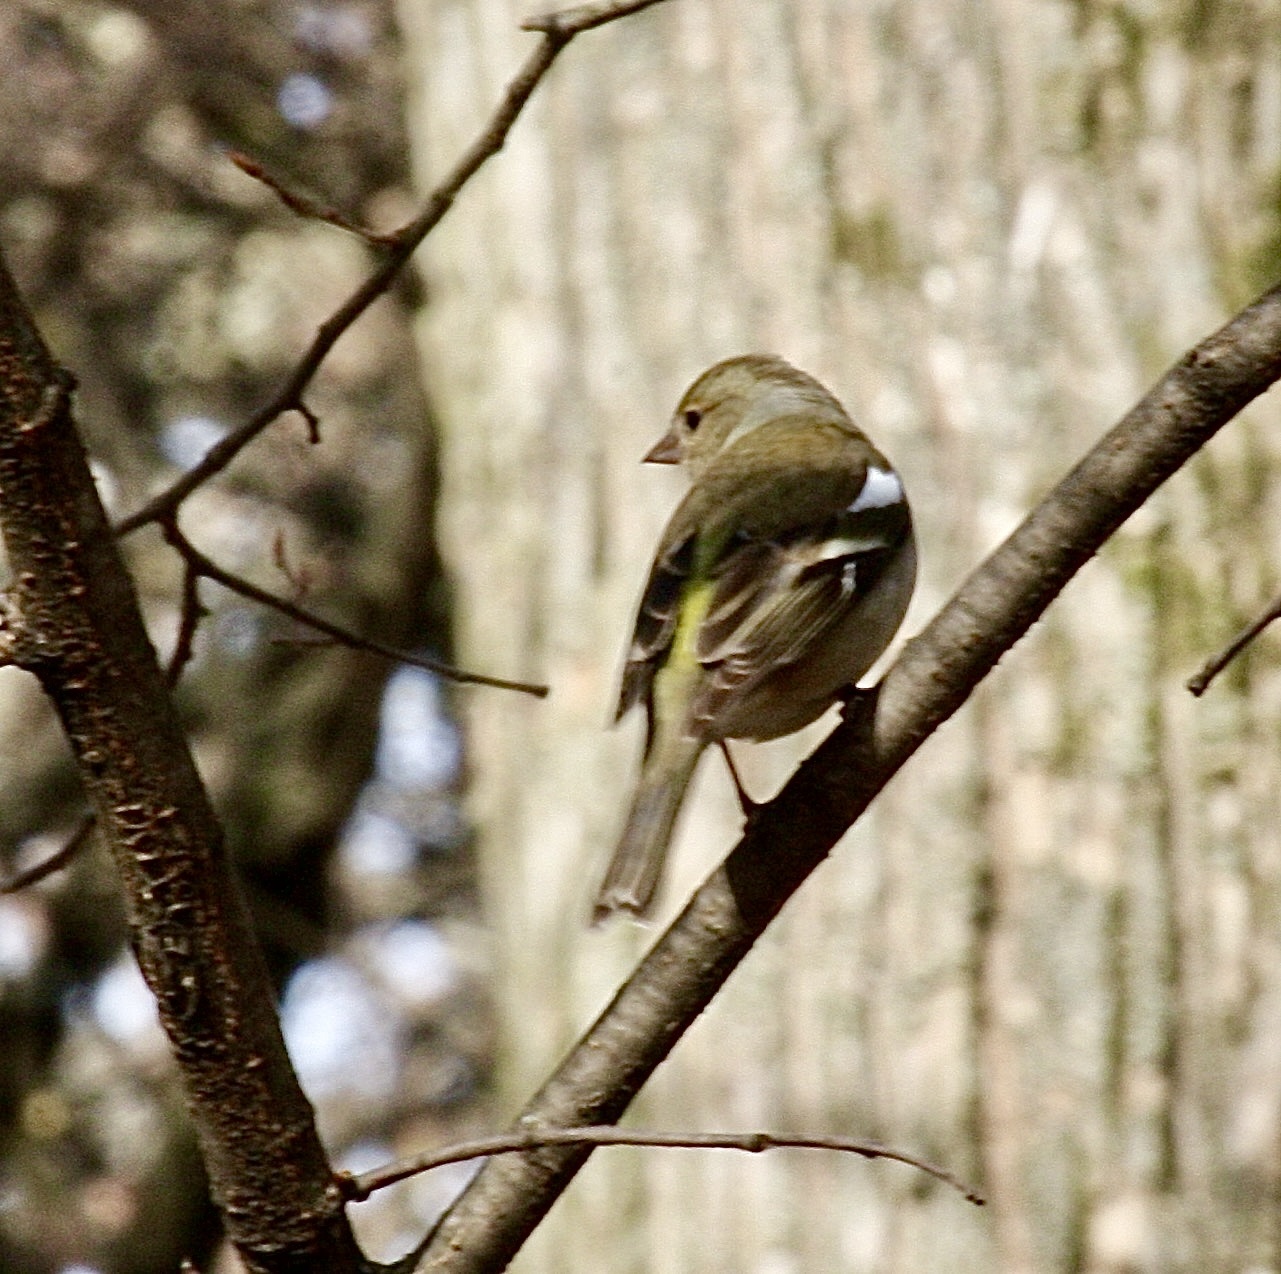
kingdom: Animalia
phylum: Chordata
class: Aves
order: Passeriformes
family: Fringillidae
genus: Fringilla
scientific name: Fringilla coelebs
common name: Common chaffinch
